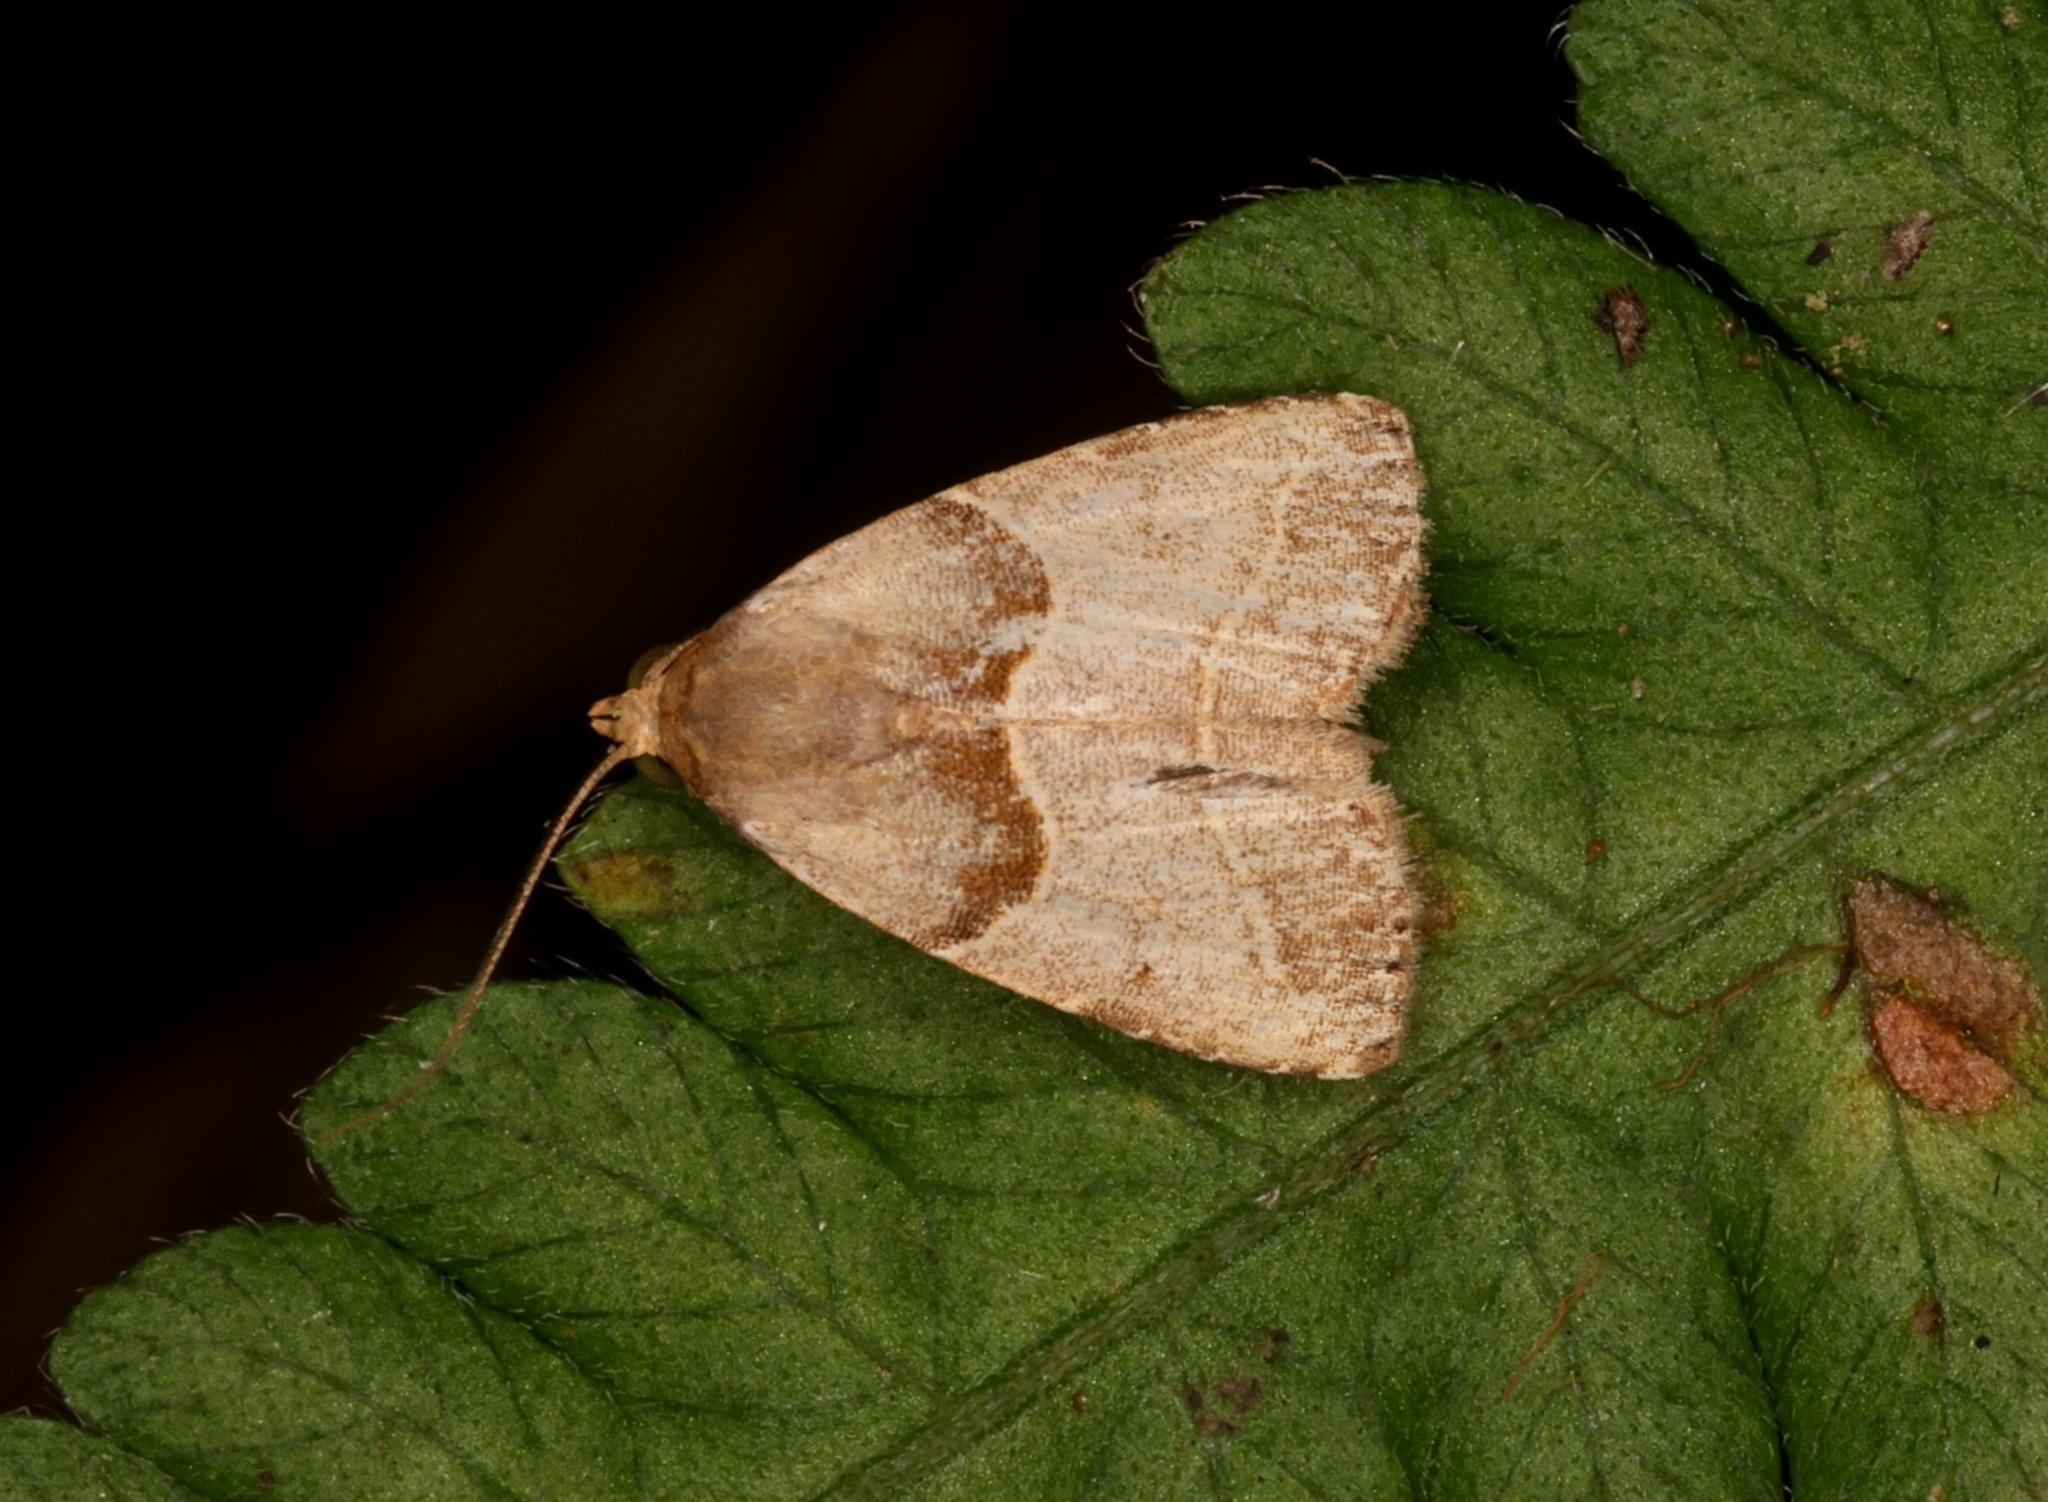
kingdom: Animalia
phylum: Arthropoda
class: Insecta
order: Lepidoptera
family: Erebidae
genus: Rivula
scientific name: Rivula basalis
